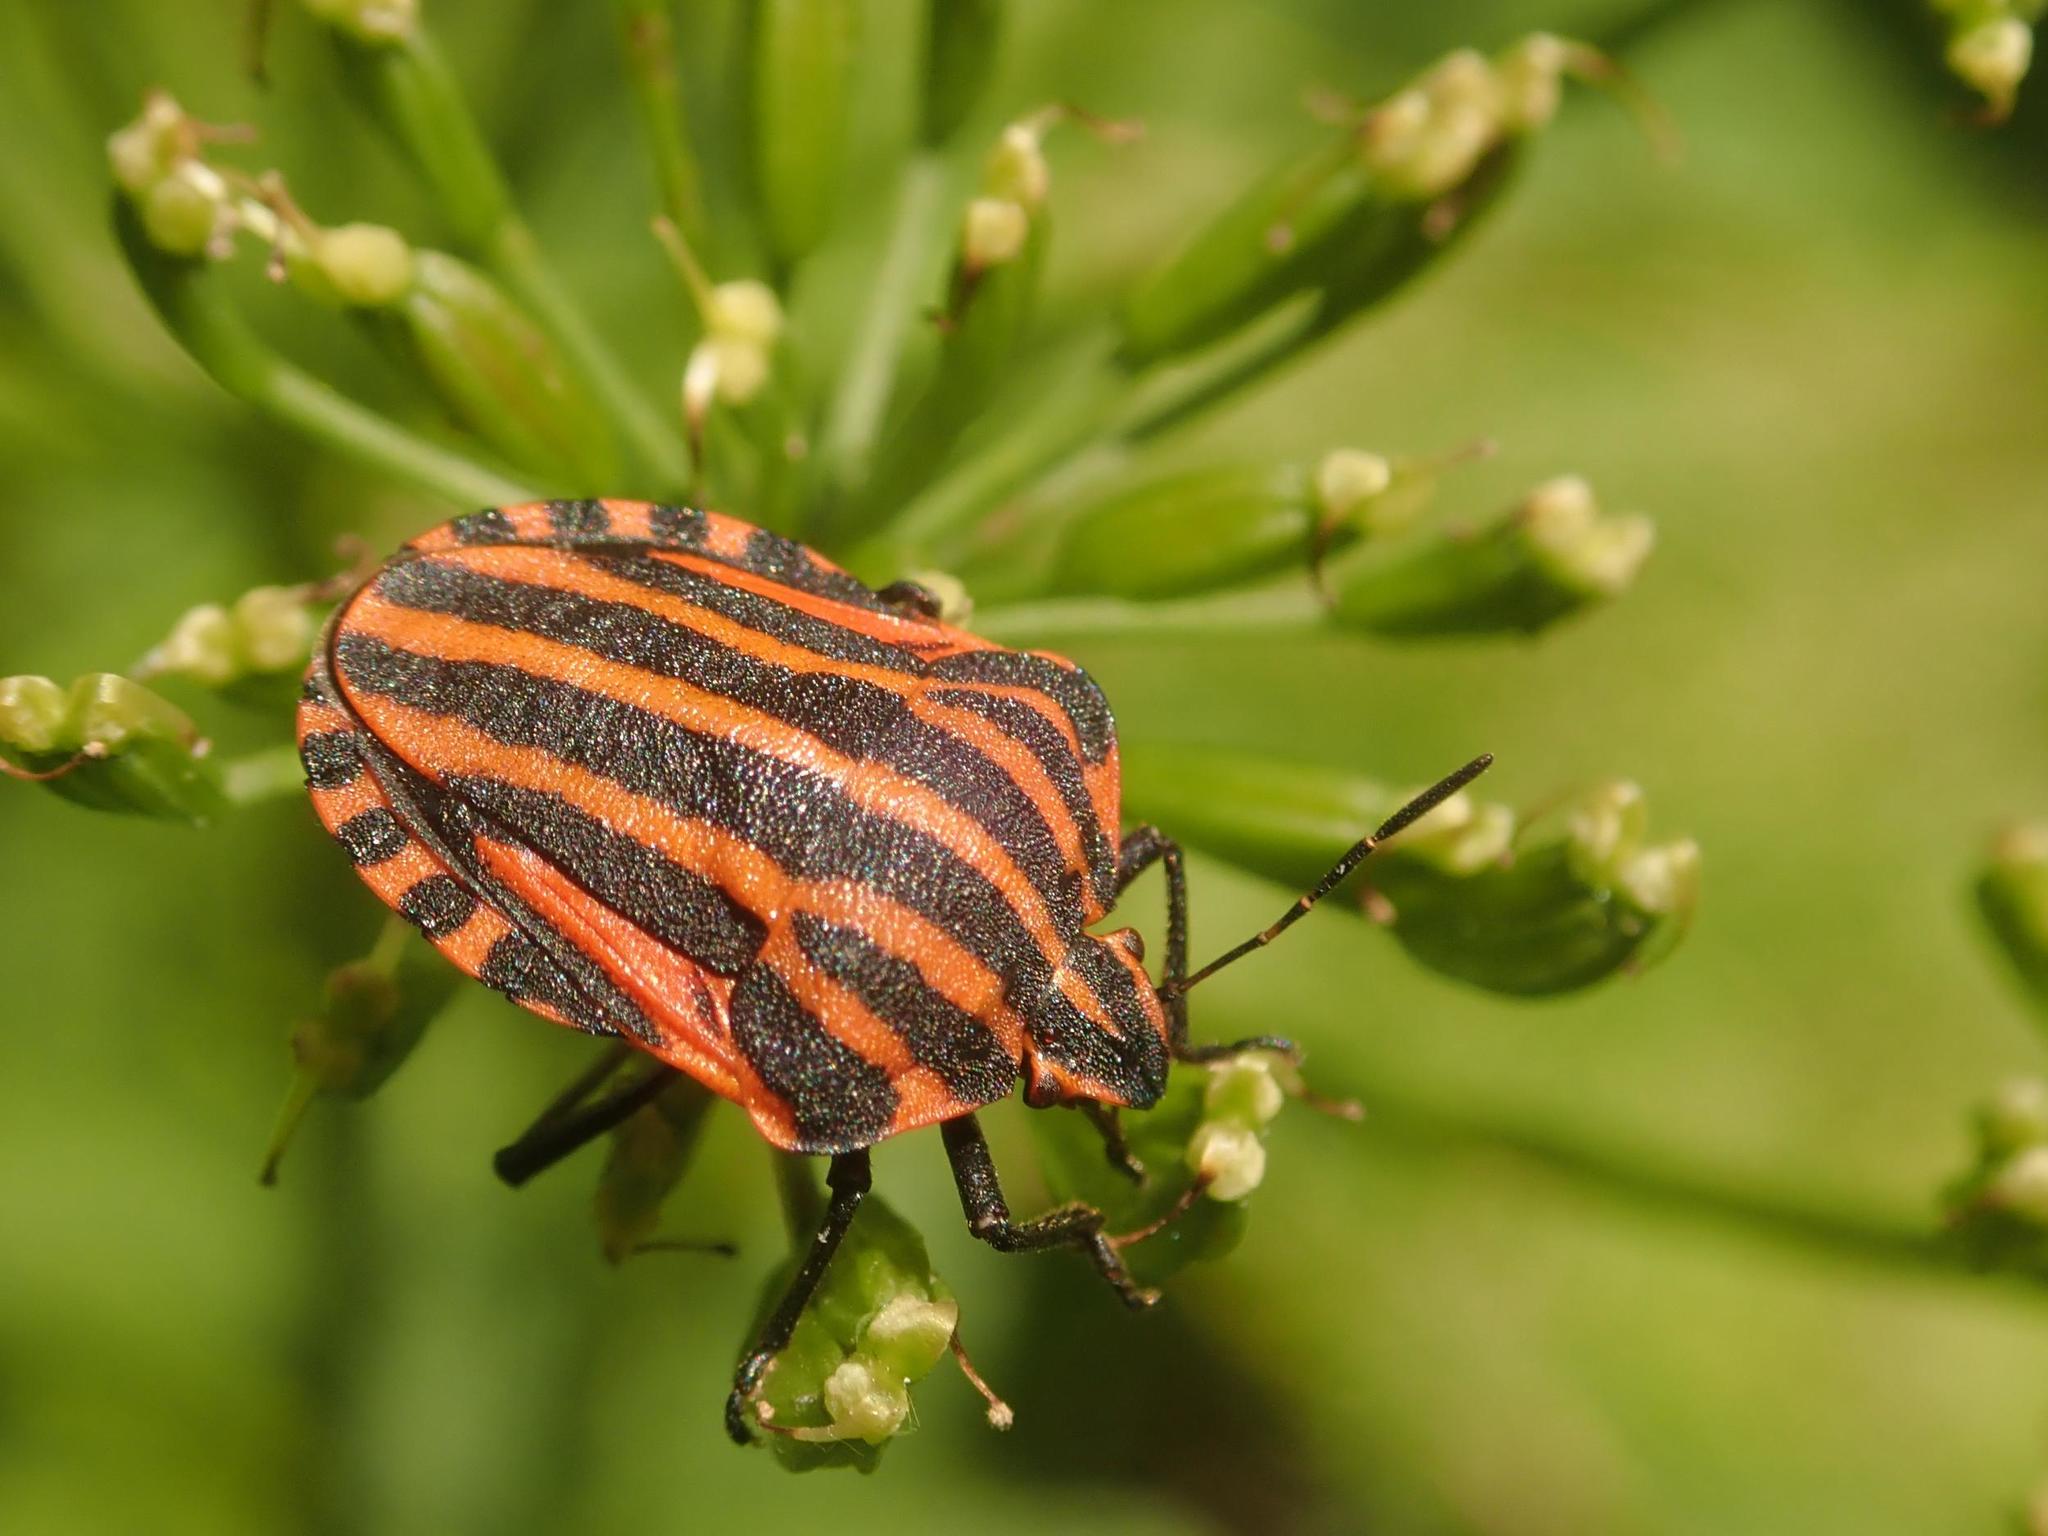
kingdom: Animalia
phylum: Arthropoda
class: Insecta
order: Hemiptera
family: Pentatomidae
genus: Graphosoma
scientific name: Graphosoma italicum
